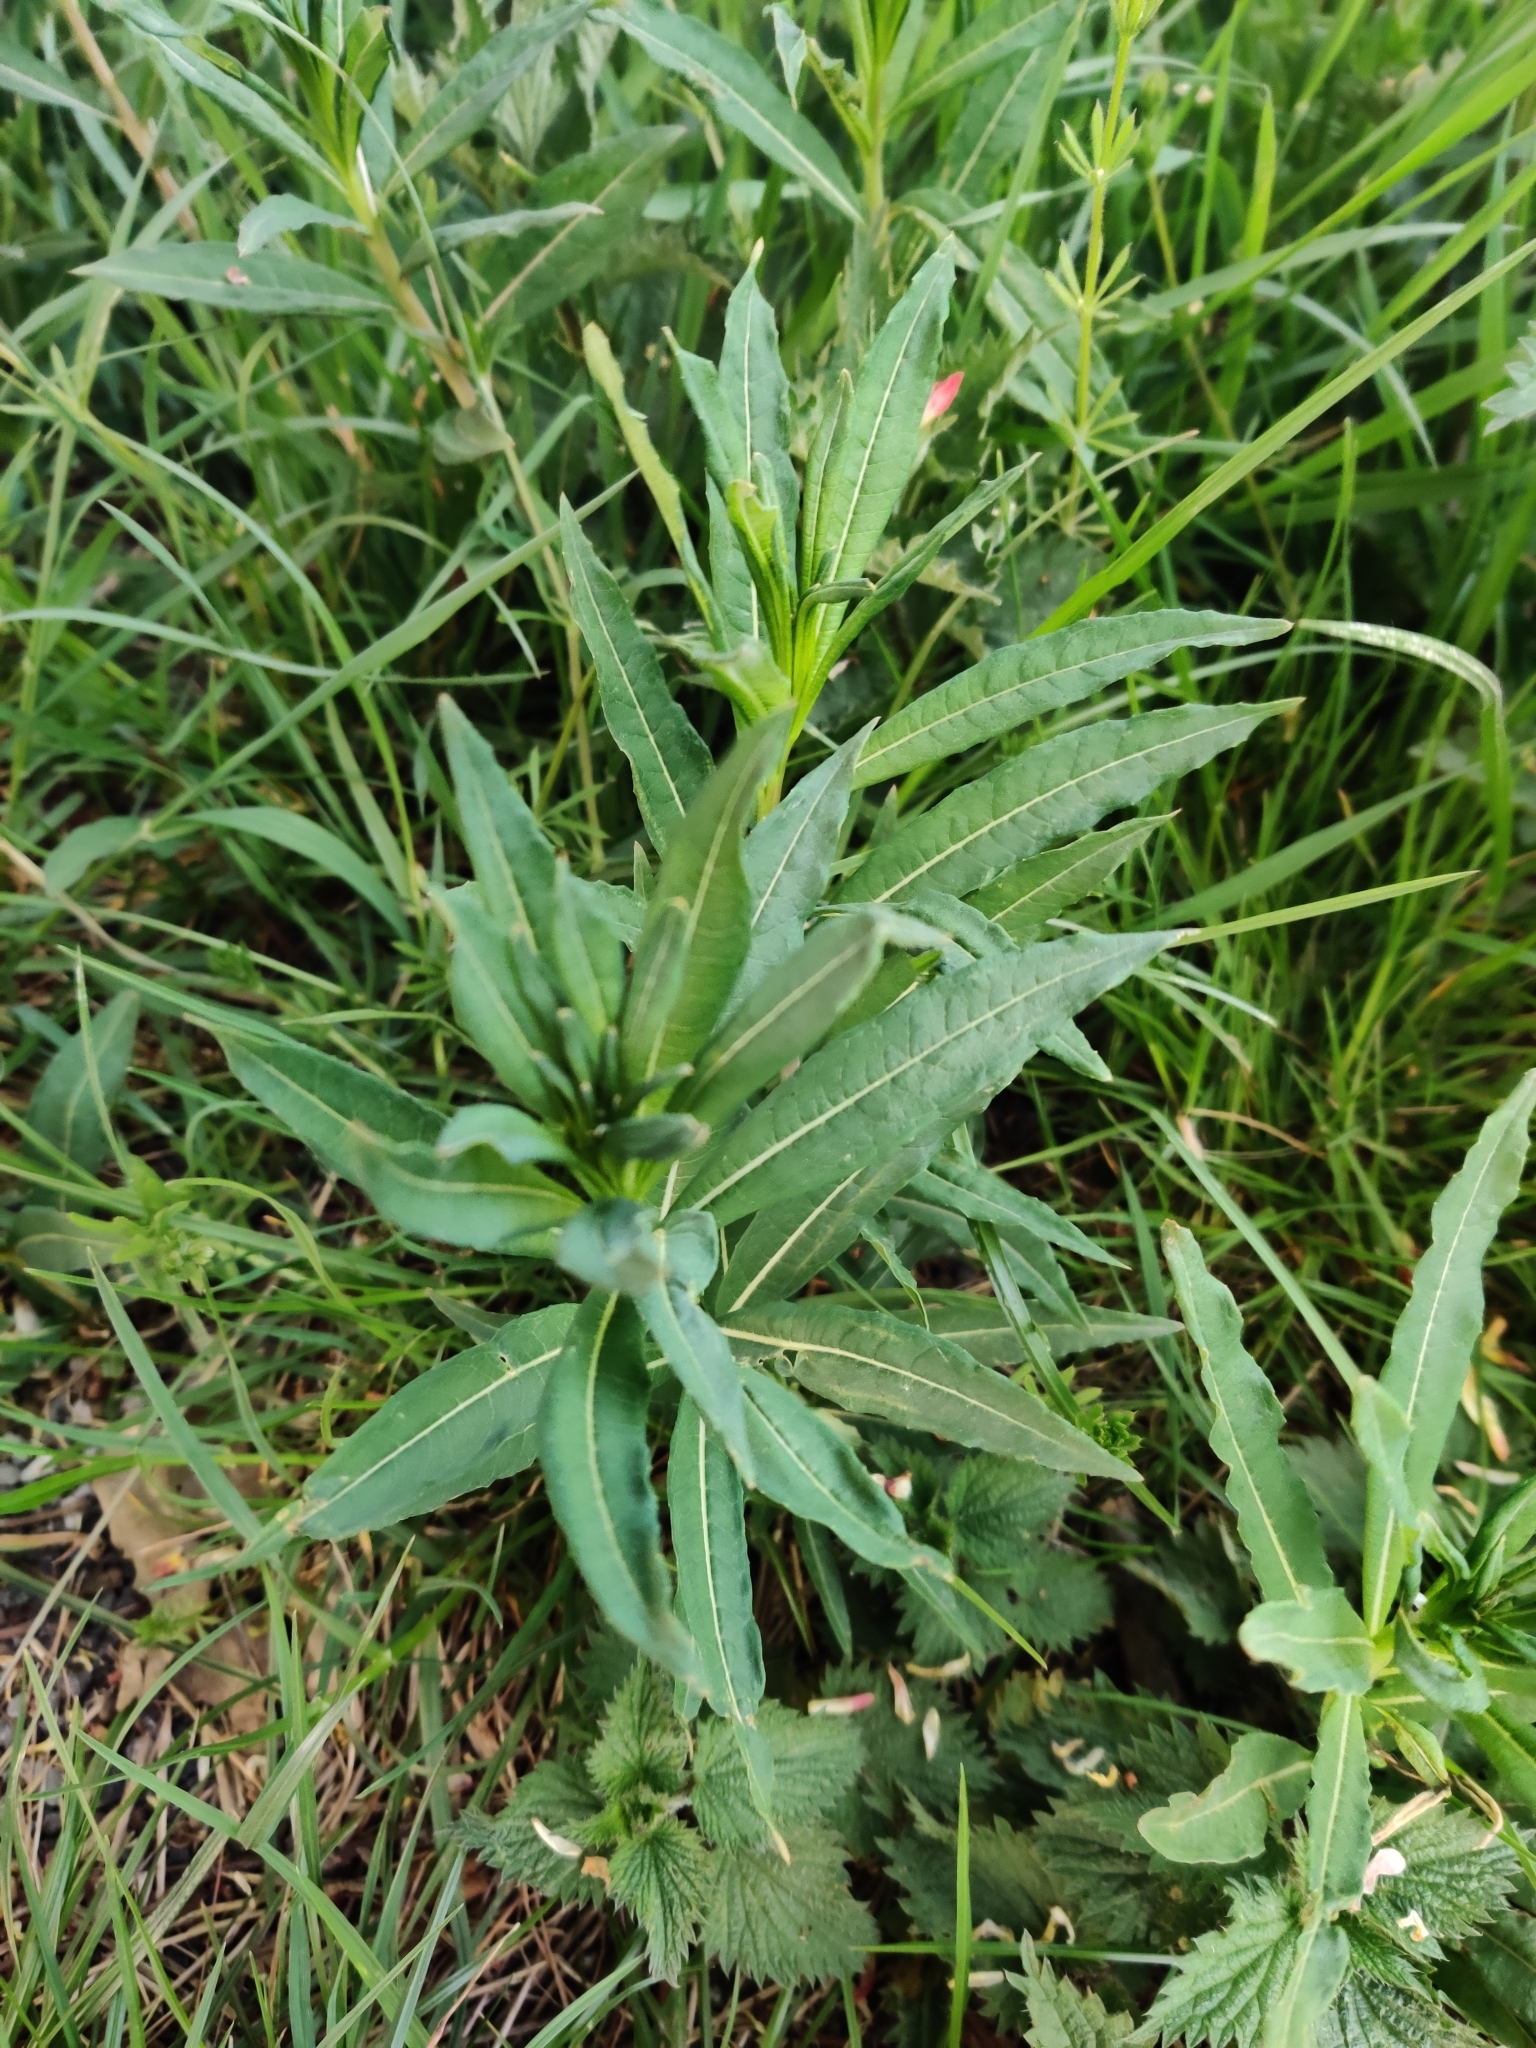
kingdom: Plantae
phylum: Tracheophyta
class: Magnoliopsida
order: Myrtales
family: Onagraceae
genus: Chamaenerion
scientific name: Chamaenerion angustifolium
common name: Fireweed
